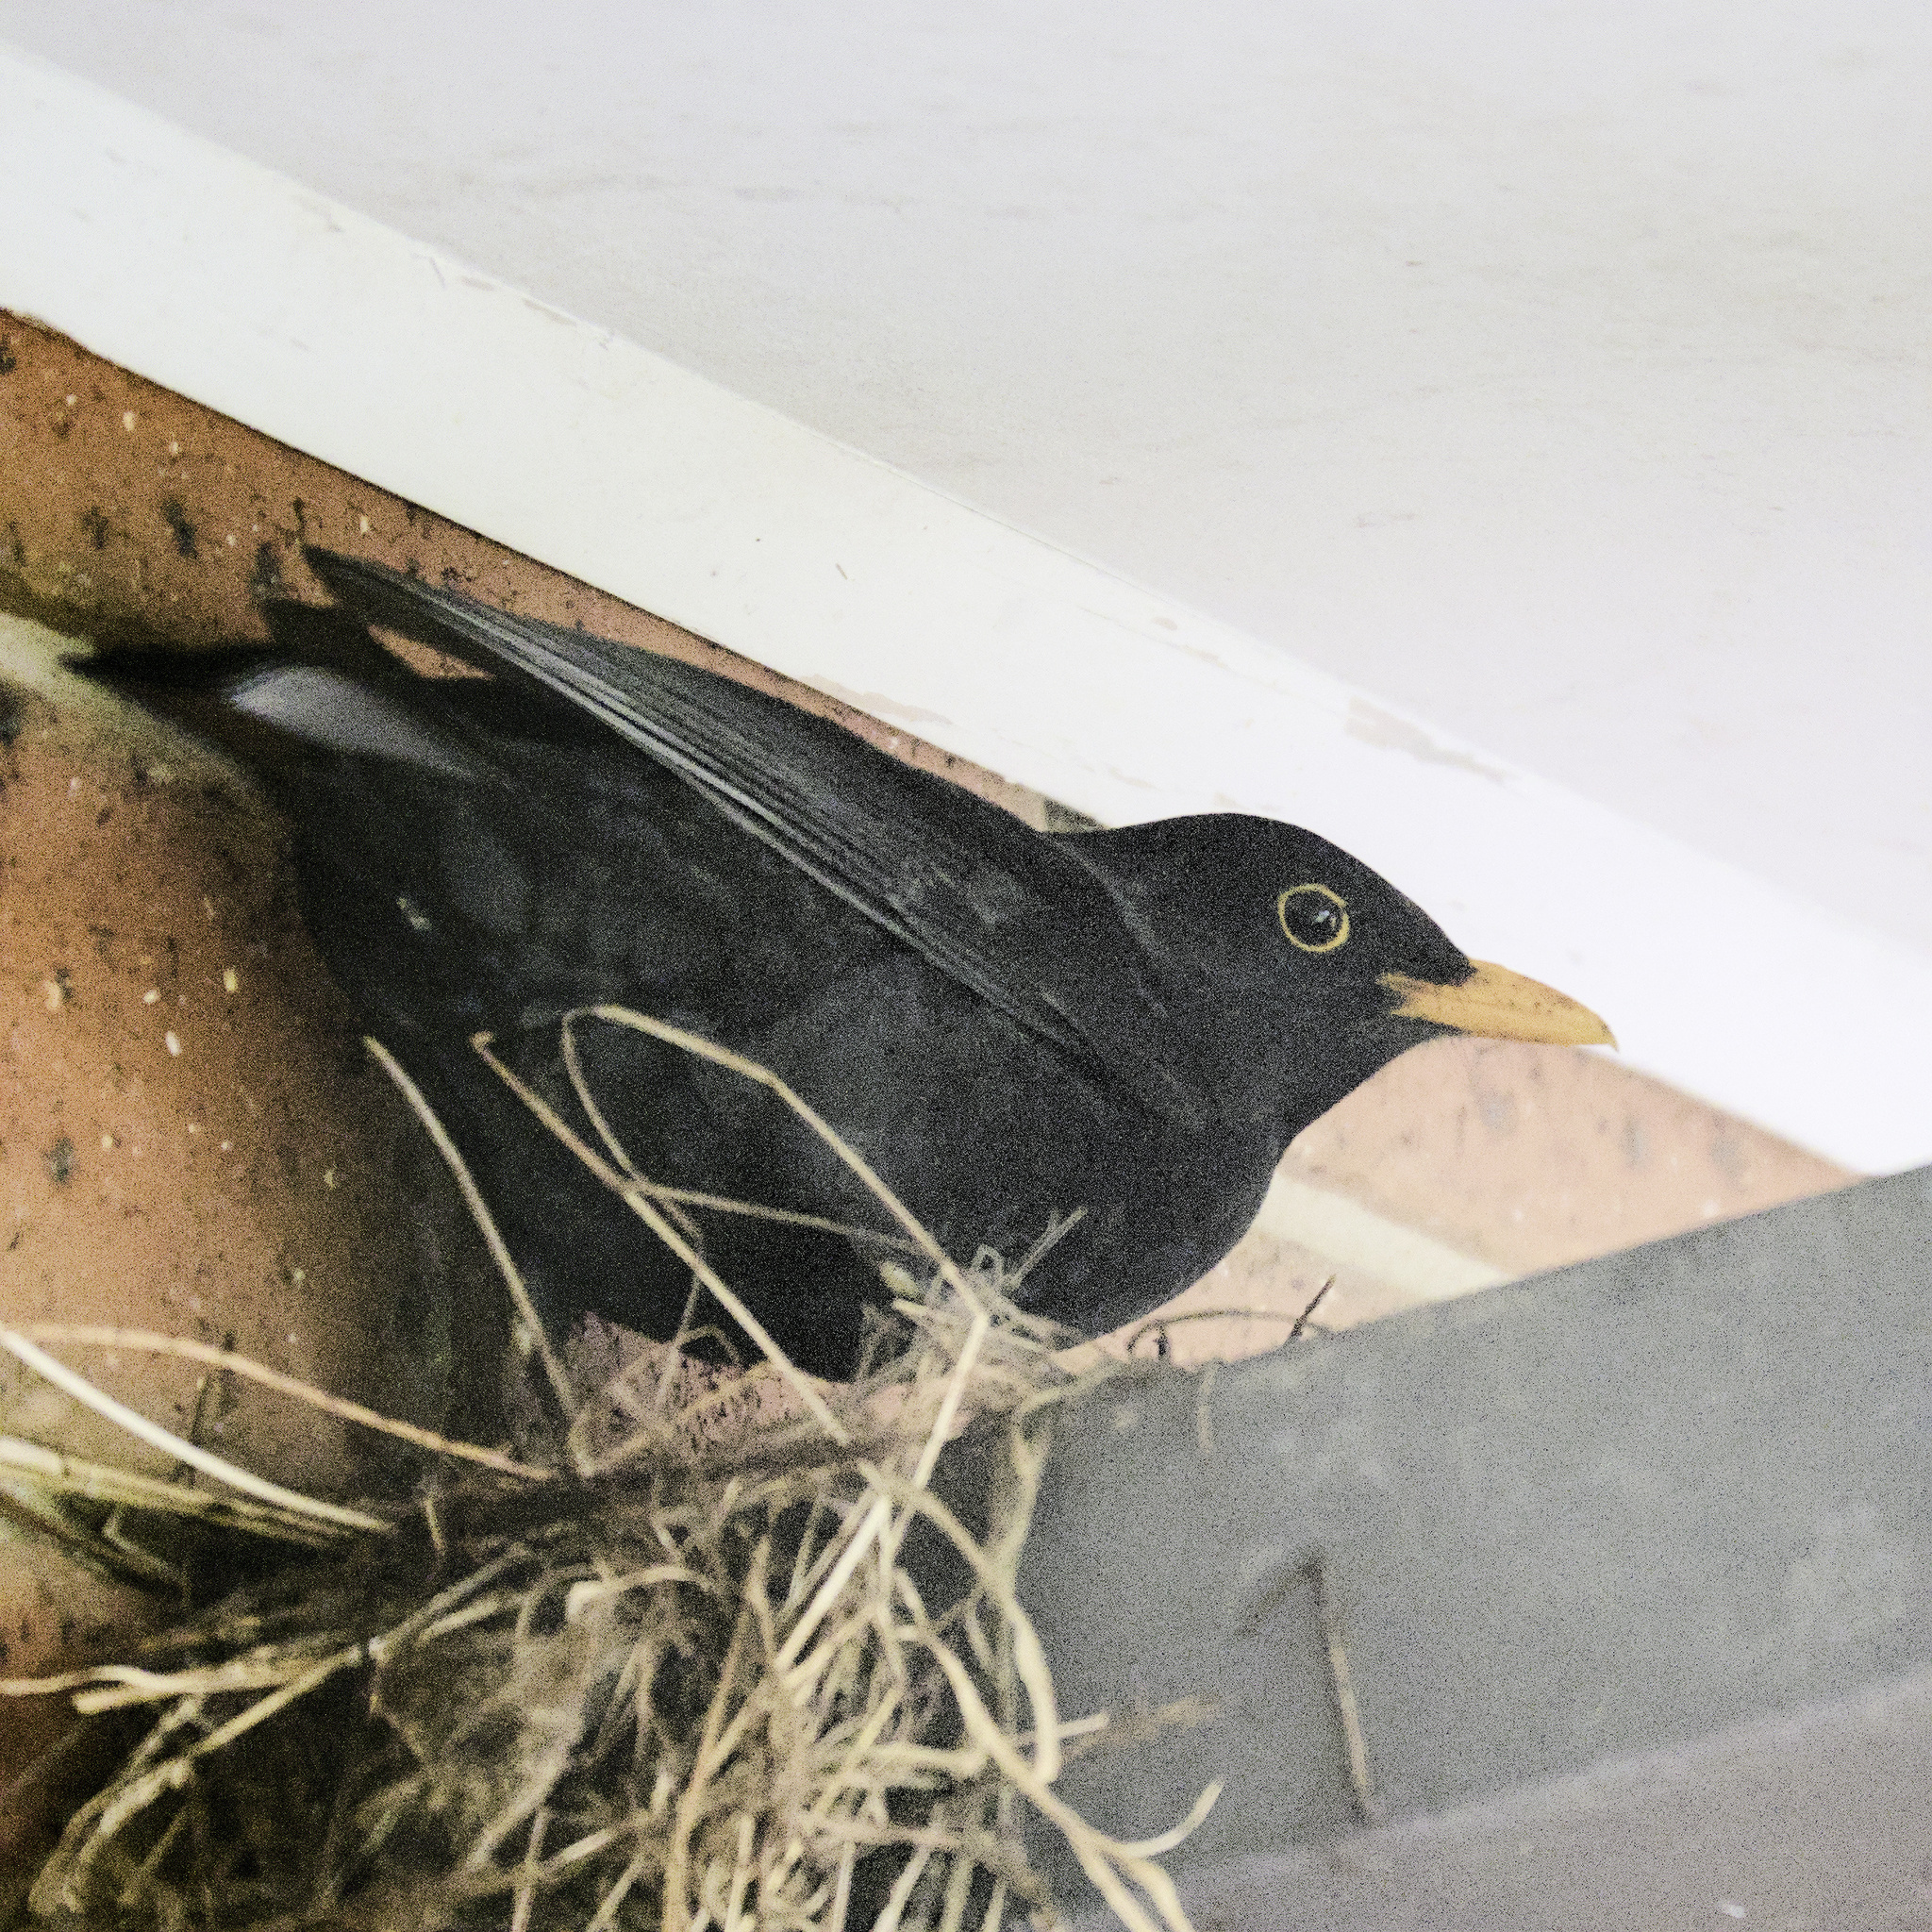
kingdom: Animalia
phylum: Chordata
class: Aves
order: Passeriformes
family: Turdidae
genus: Turdus
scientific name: Turdus merula
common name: Common blackbird
